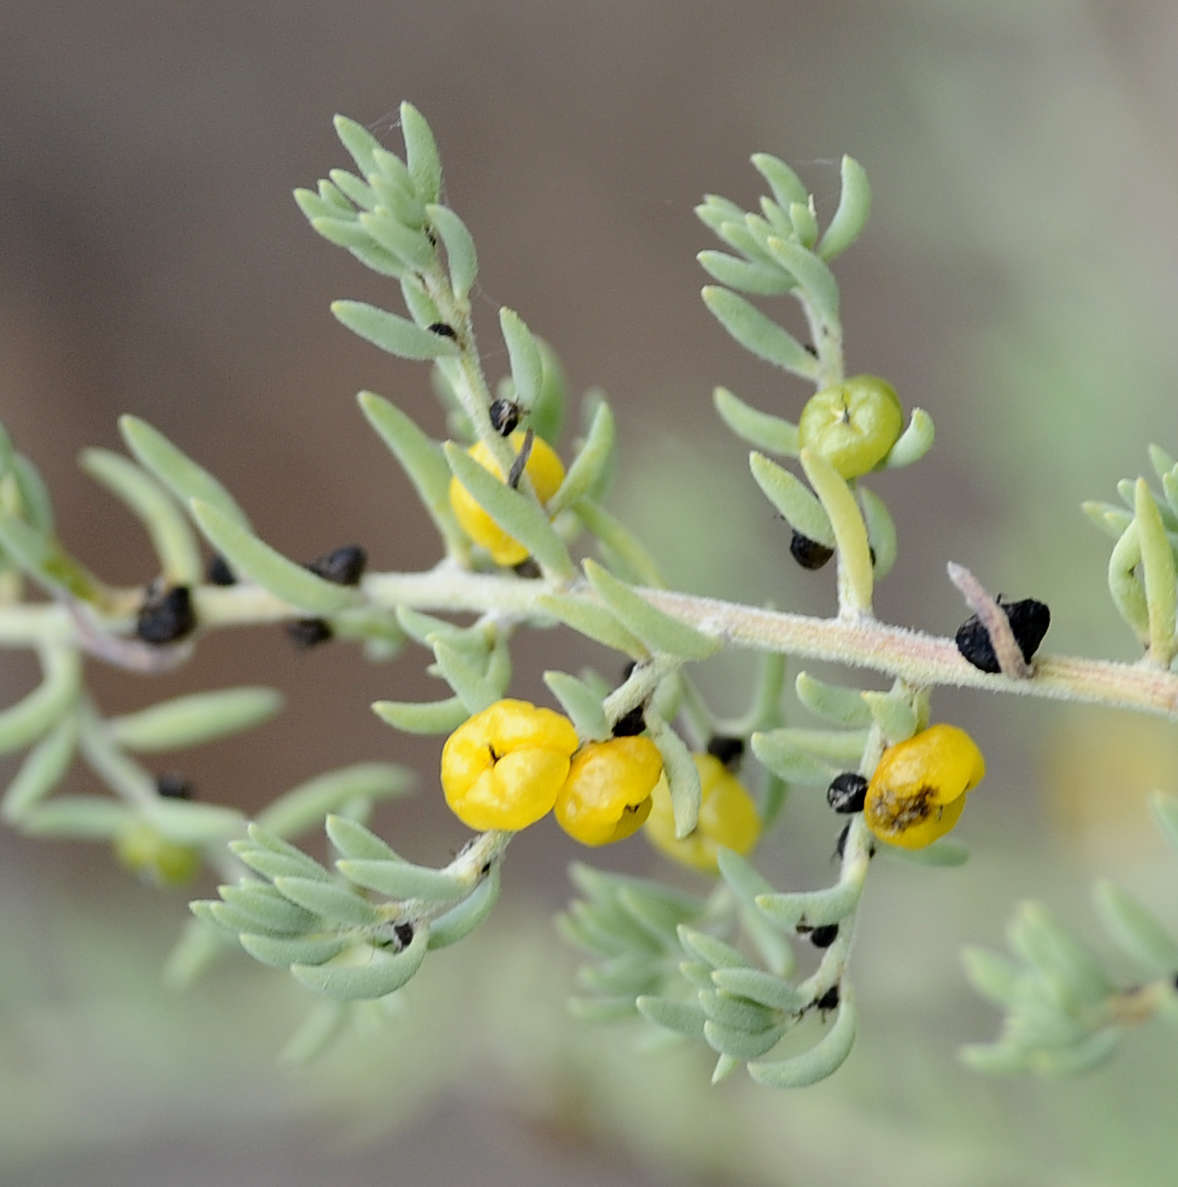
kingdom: Plantae
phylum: Tracheophyta
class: Magnoliopsida
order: Caryophyllales
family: Amaranthaceae
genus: Enchylaena
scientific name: Enchylaena tomentosa
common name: Ruby saltbush
